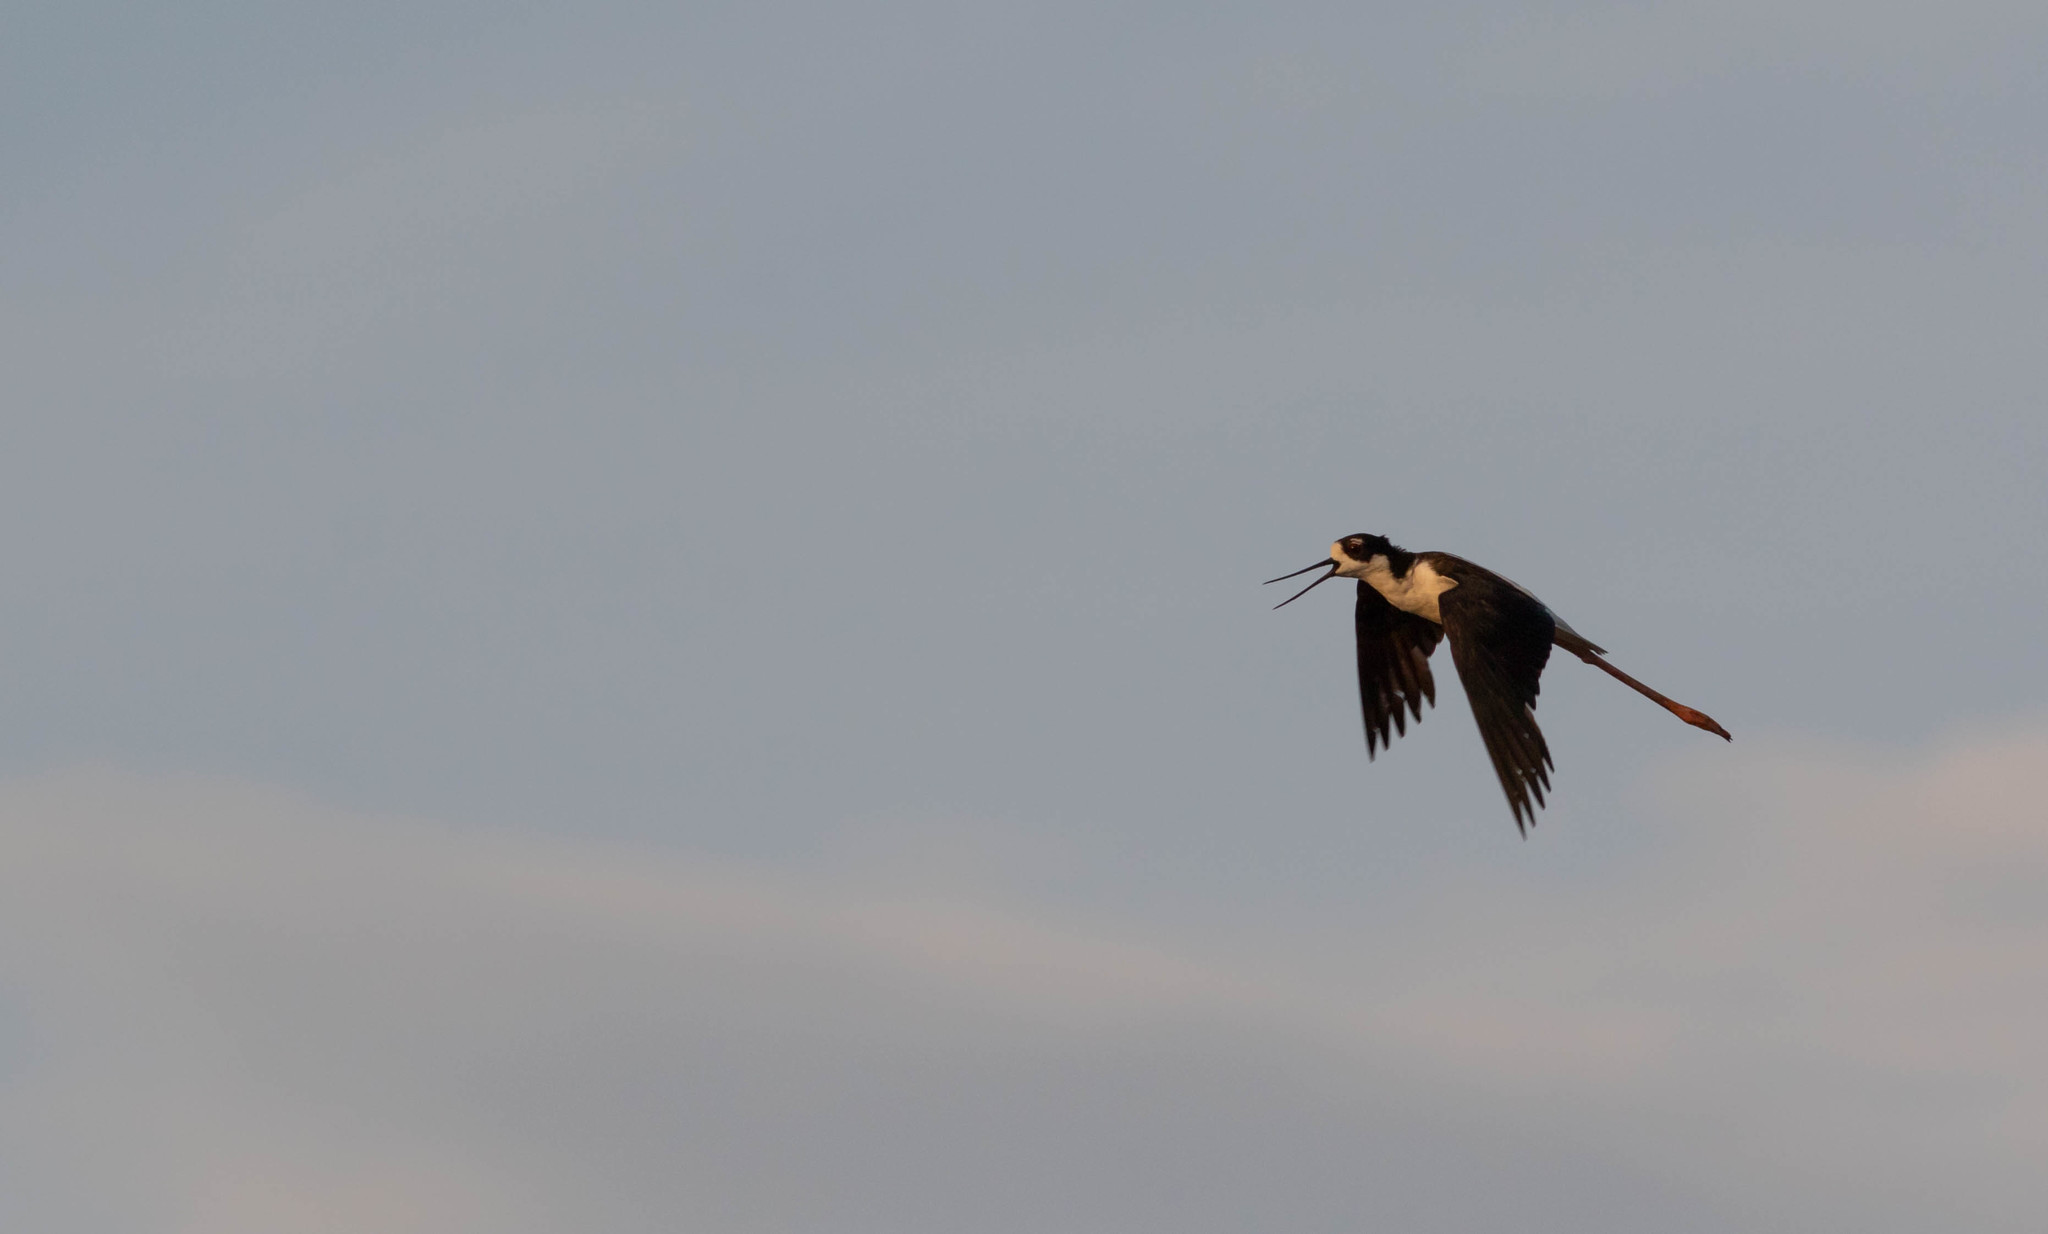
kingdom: Animalia
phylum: Chordata
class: Aves
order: Charadriiformes
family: Recurvirostridae
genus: Himantopus
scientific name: Himantopus mexicanus
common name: Black-necked stilt
